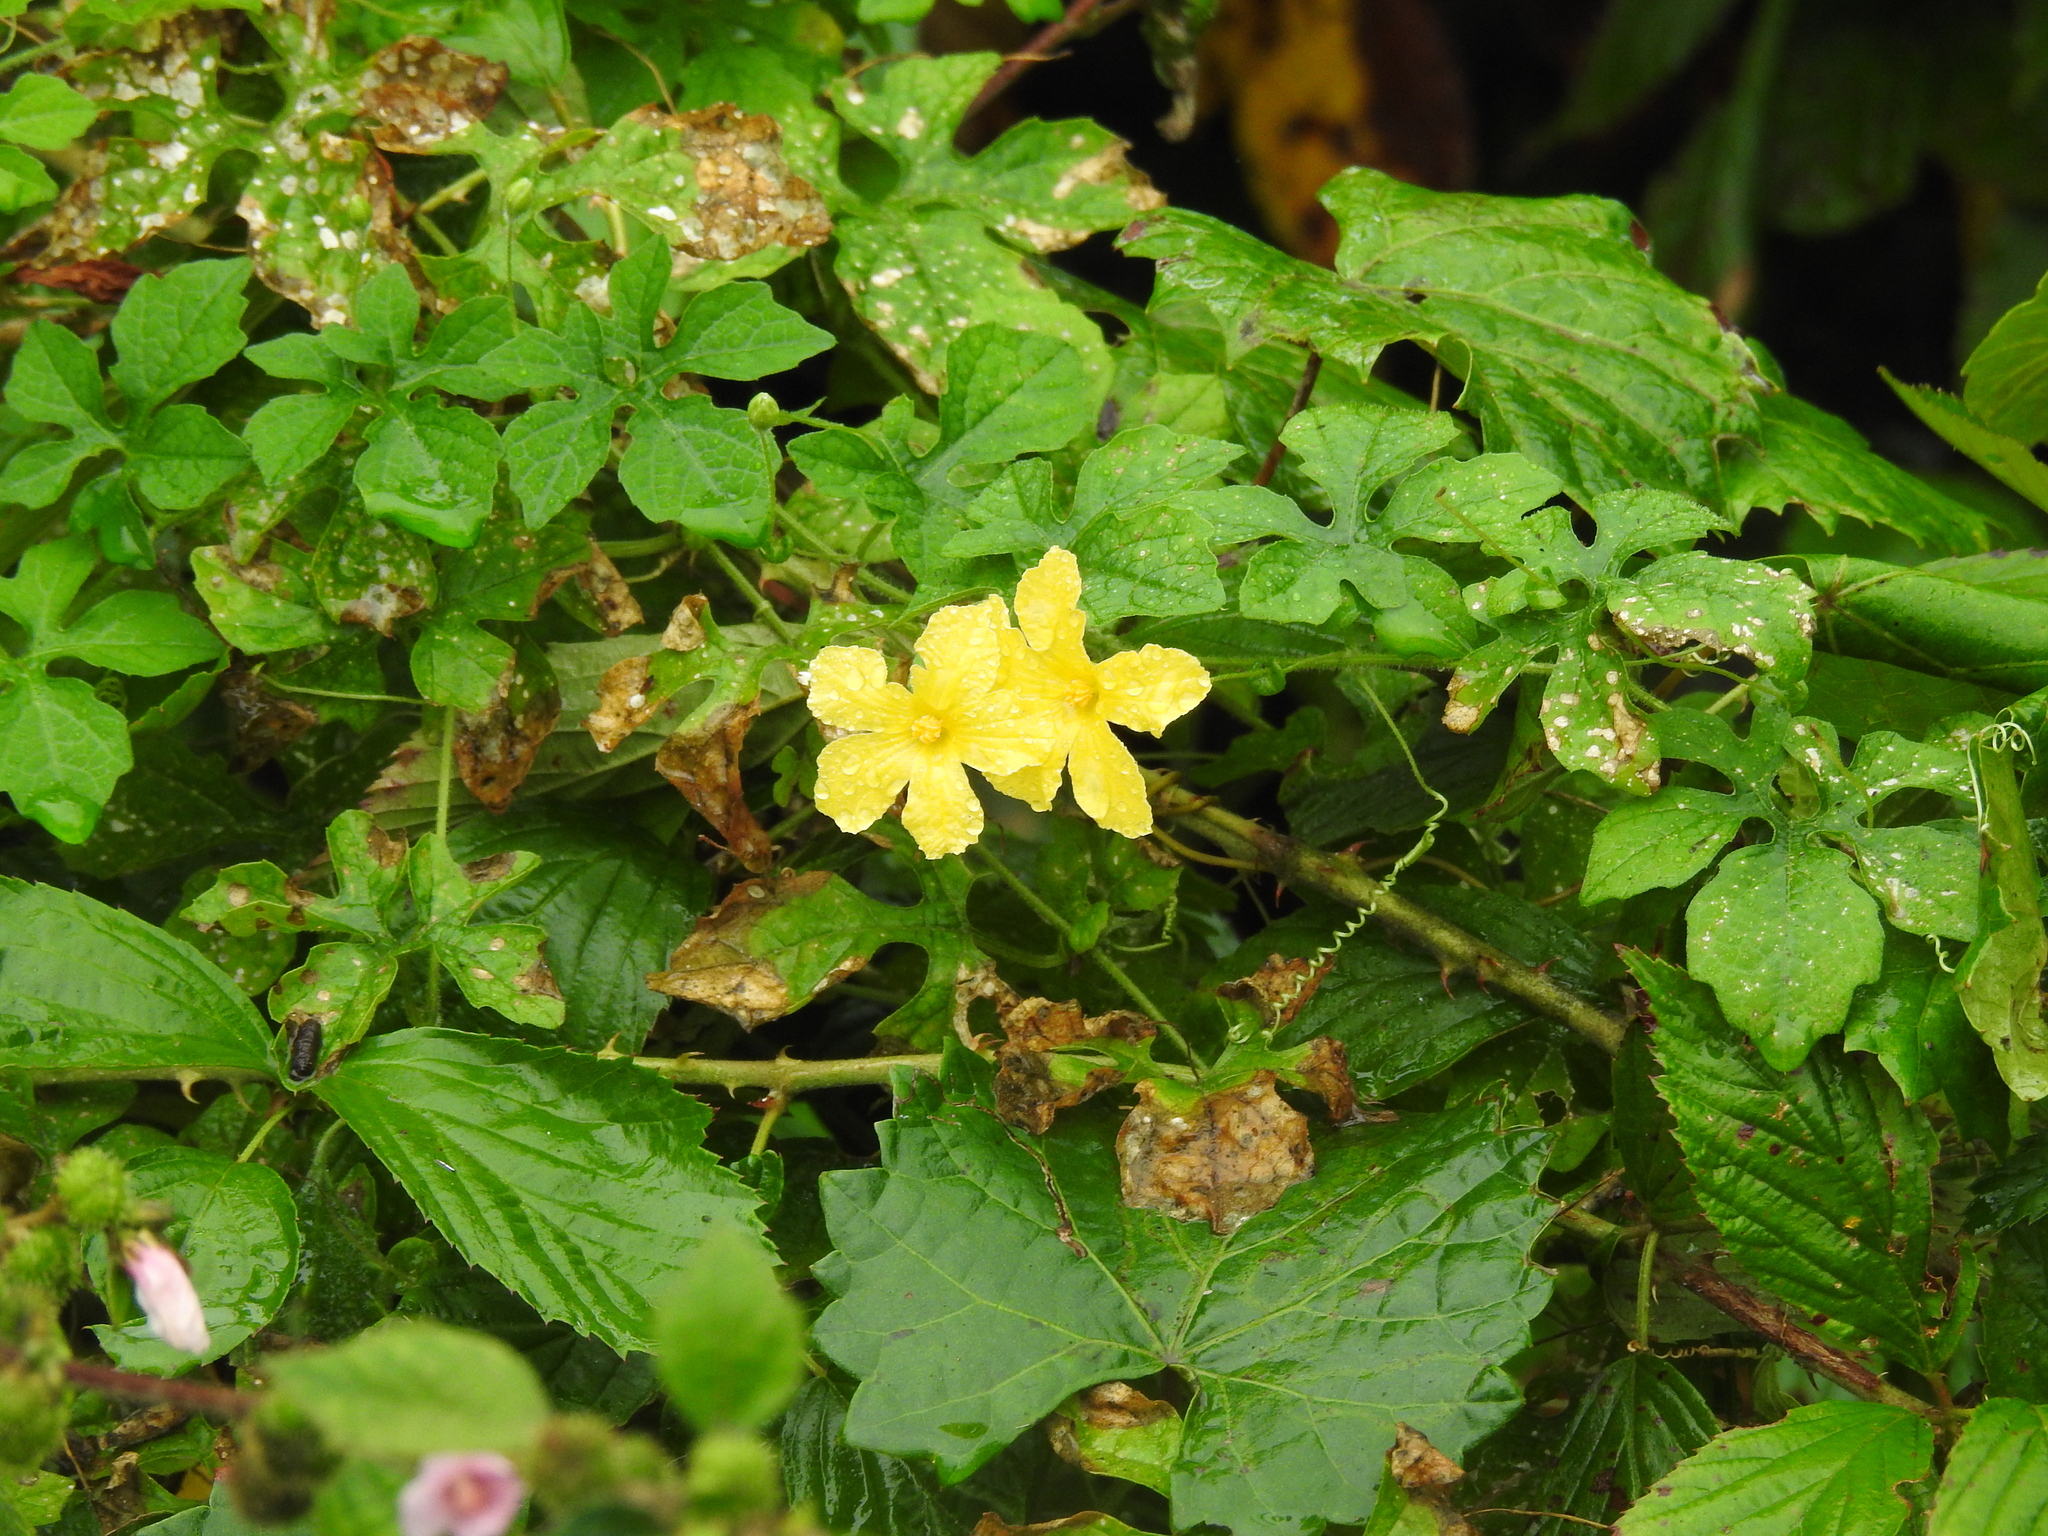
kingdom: Plantae
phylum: Tracheophyta
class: Magnoliopsida
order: Cucurbitales
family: Cucurbitaceae
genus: Momordica
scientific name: Momordica charantia
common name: Balsampear
